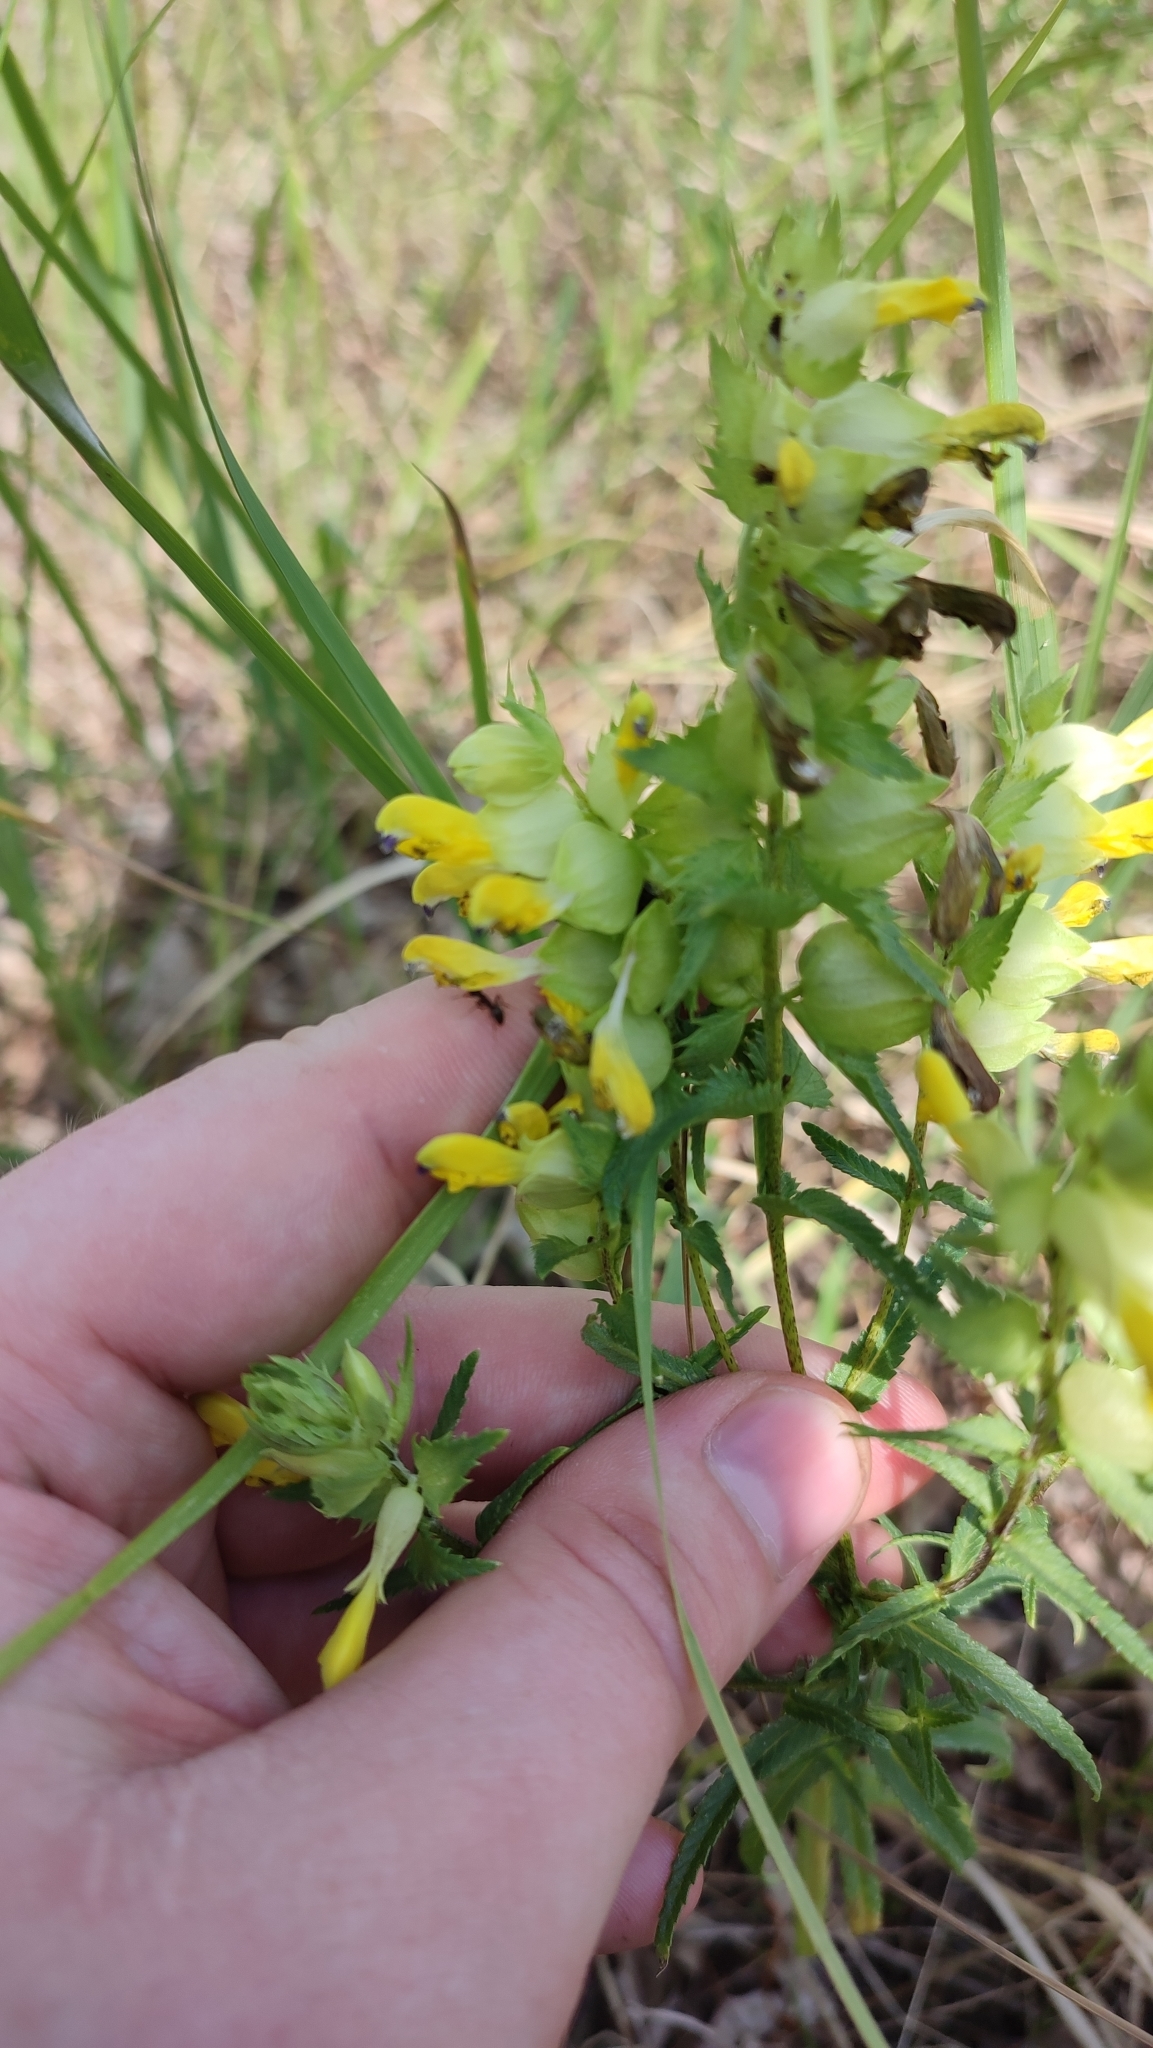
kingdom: Plantae
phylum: Tracheophyta
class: Magnoliopsida
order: Lamiales
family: Orobanchaceae
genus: Rhinanthus
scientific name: Rhinanthus serotinus
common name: Late-flowering yellow rattle
